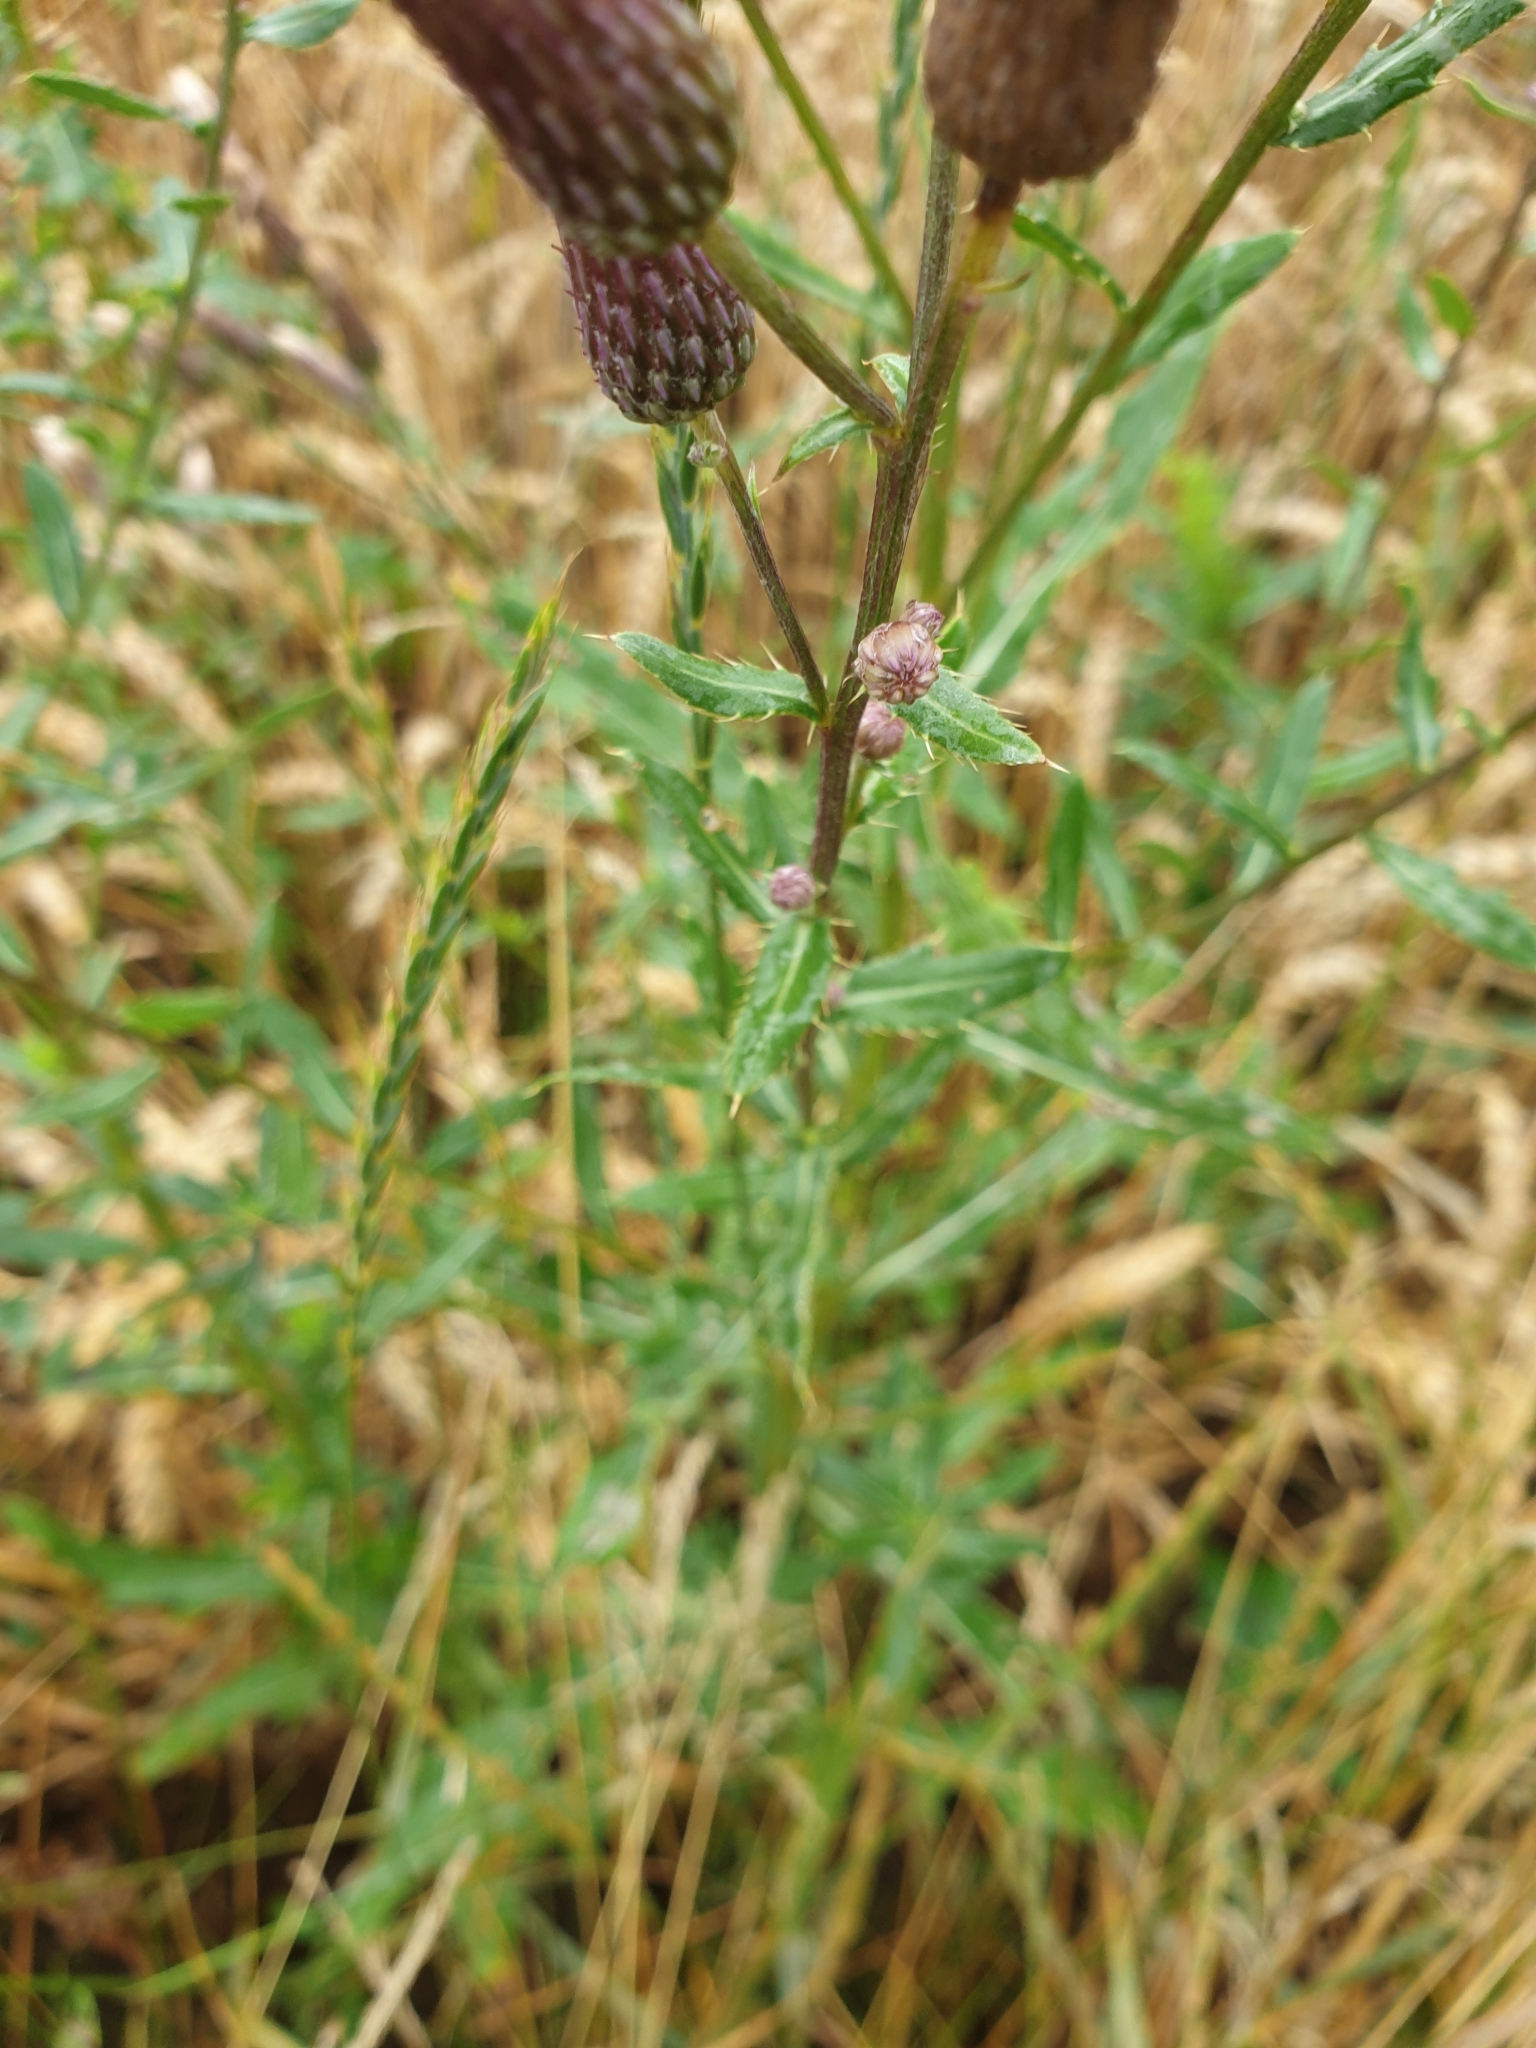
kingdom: Plantae
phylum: Tracheophyta
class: Magnoliopsida
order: Asterales
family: Asteraceae
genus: Cirsium
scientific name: Cirsium arvense
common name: Creeping thistle
